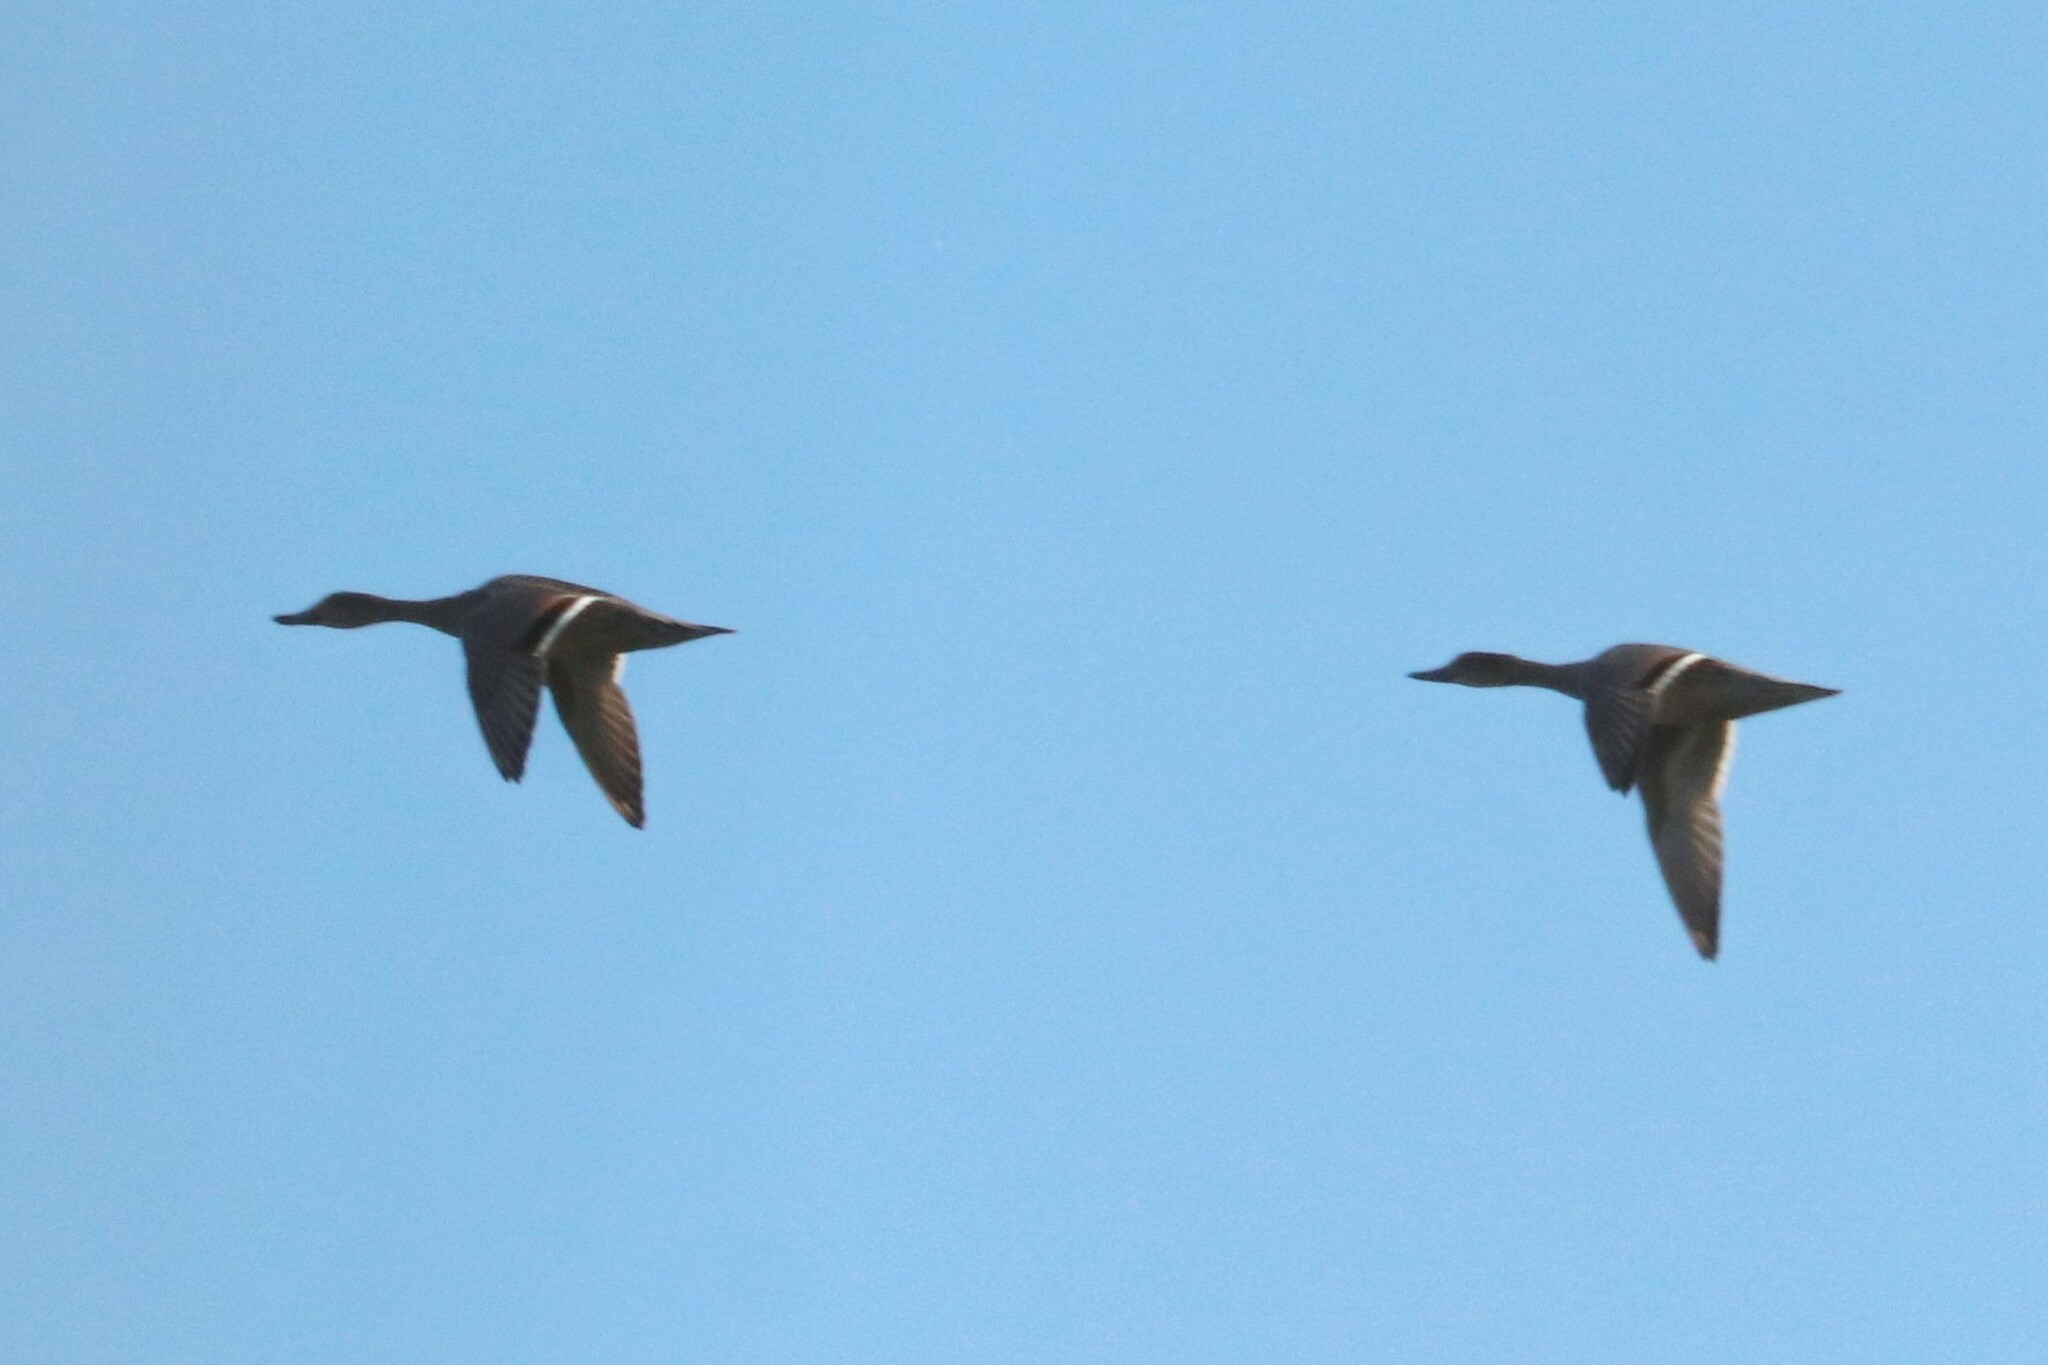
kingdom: Animalia
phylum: Chordata
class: Aves
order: Anseriformes
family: Anatidae
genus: Anas
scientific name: Anas acuta
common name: Northern pintail
